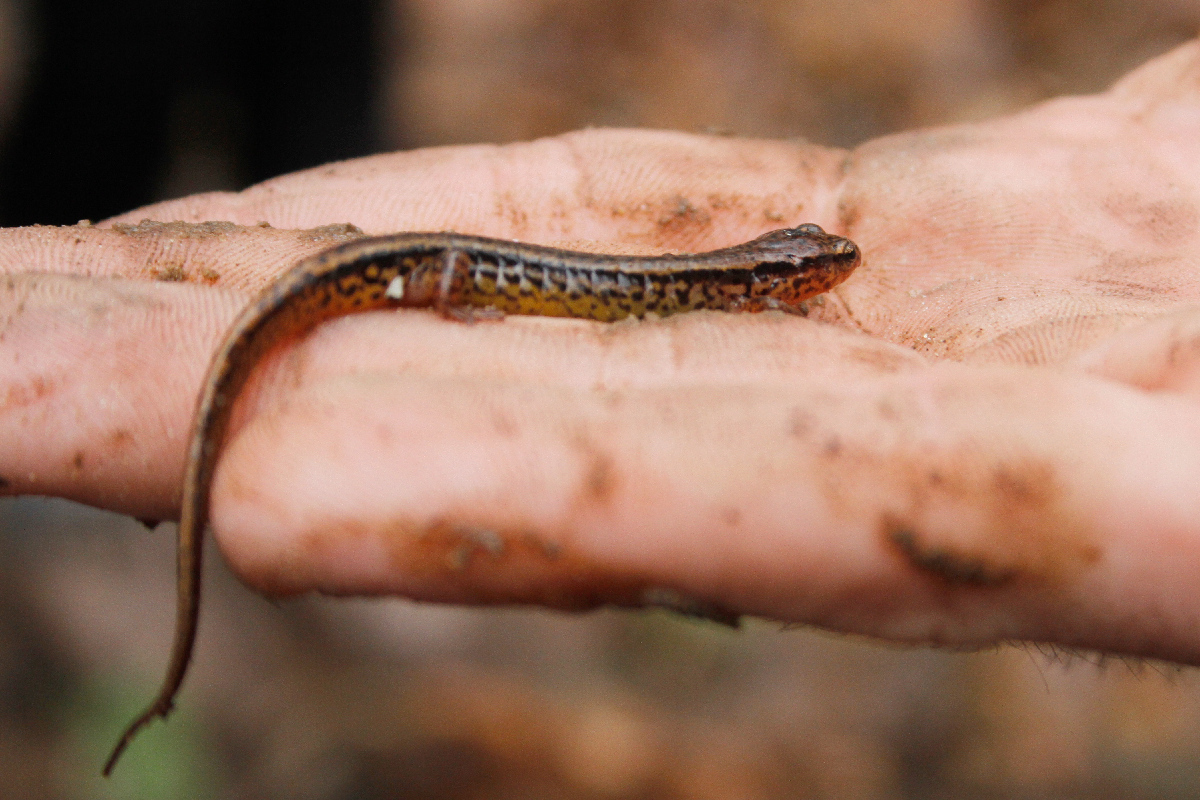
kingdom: Animalia
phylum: Chordata
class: Amphibia
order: Caudata
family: Plethodontidae
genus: Eurycea
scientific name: Eurycea cirrigera
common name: Southern two-lined salamander
